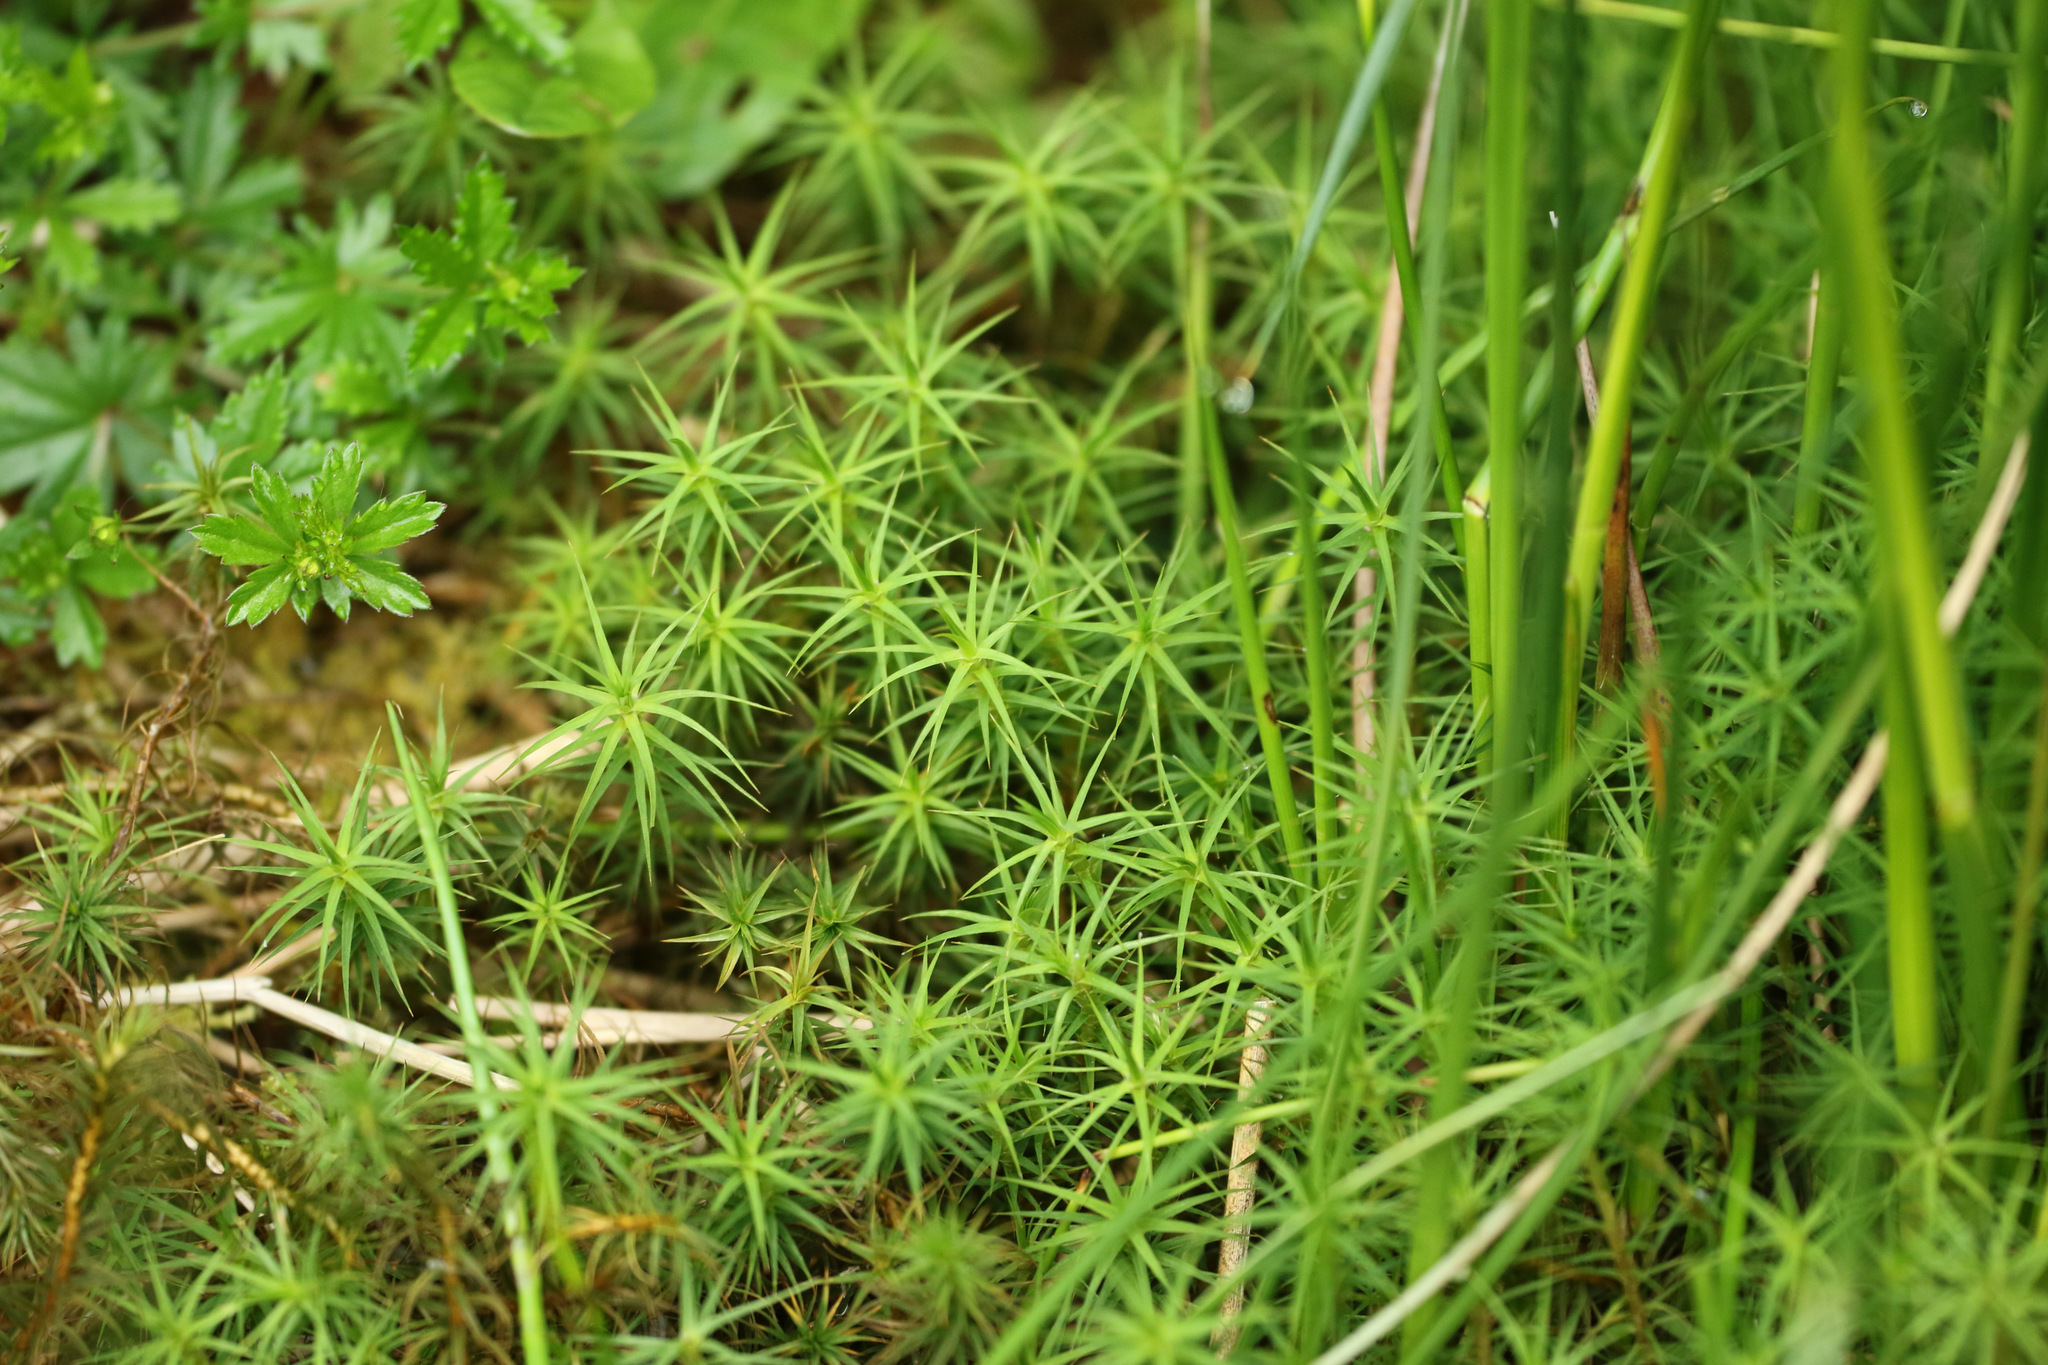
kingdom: Plantae
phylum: Bryophyta
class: Polytrichopsida
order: Polytrichales
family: Polytrichaceae
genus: Polytrichum
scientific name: Polytrichum commune
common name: Common haircap
